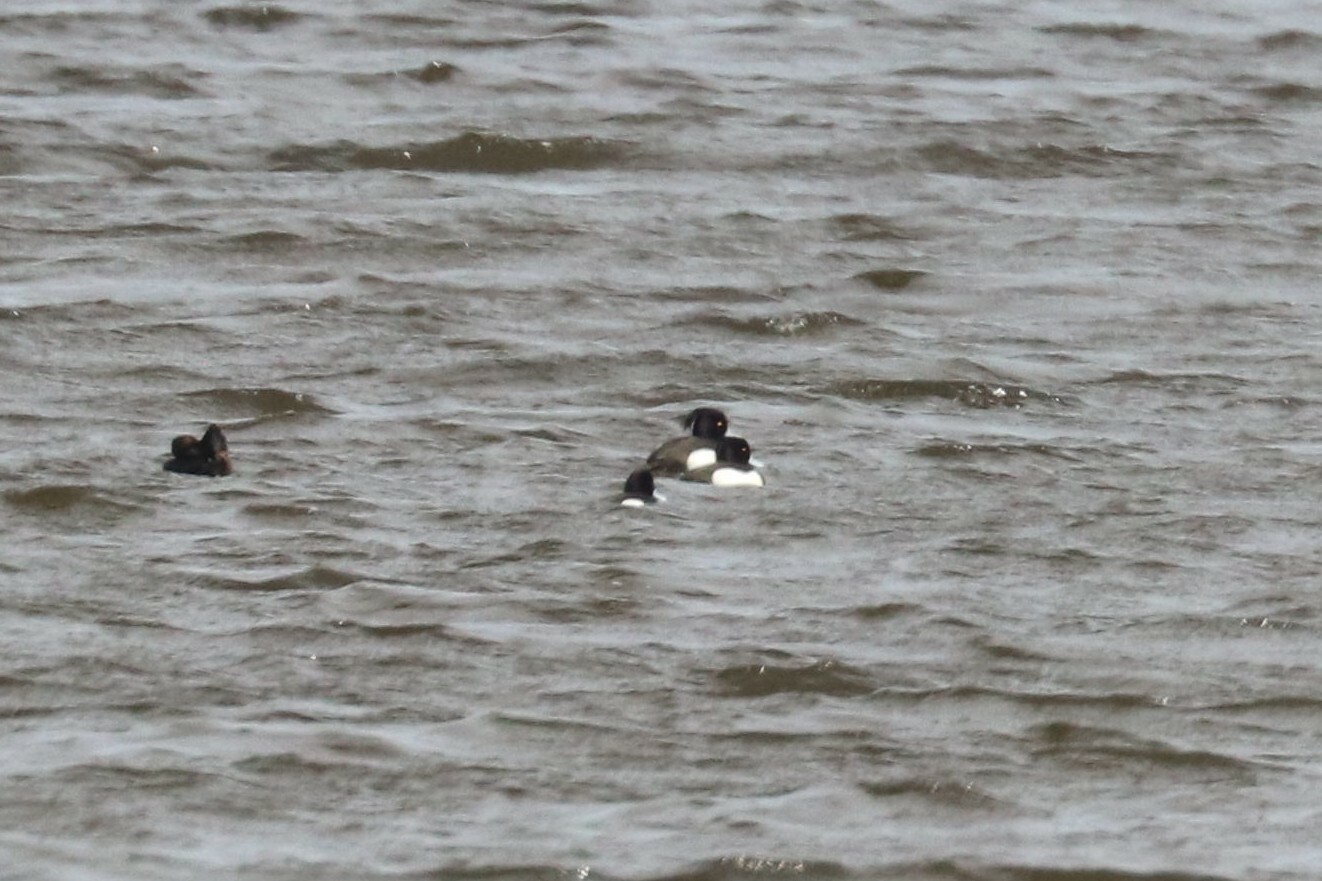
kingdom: Animalia
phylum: Chordata
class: Aves
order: Anseriformes
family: Anatidae
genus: Aythya
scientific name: Aythya fuligula
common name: Tufted duck
